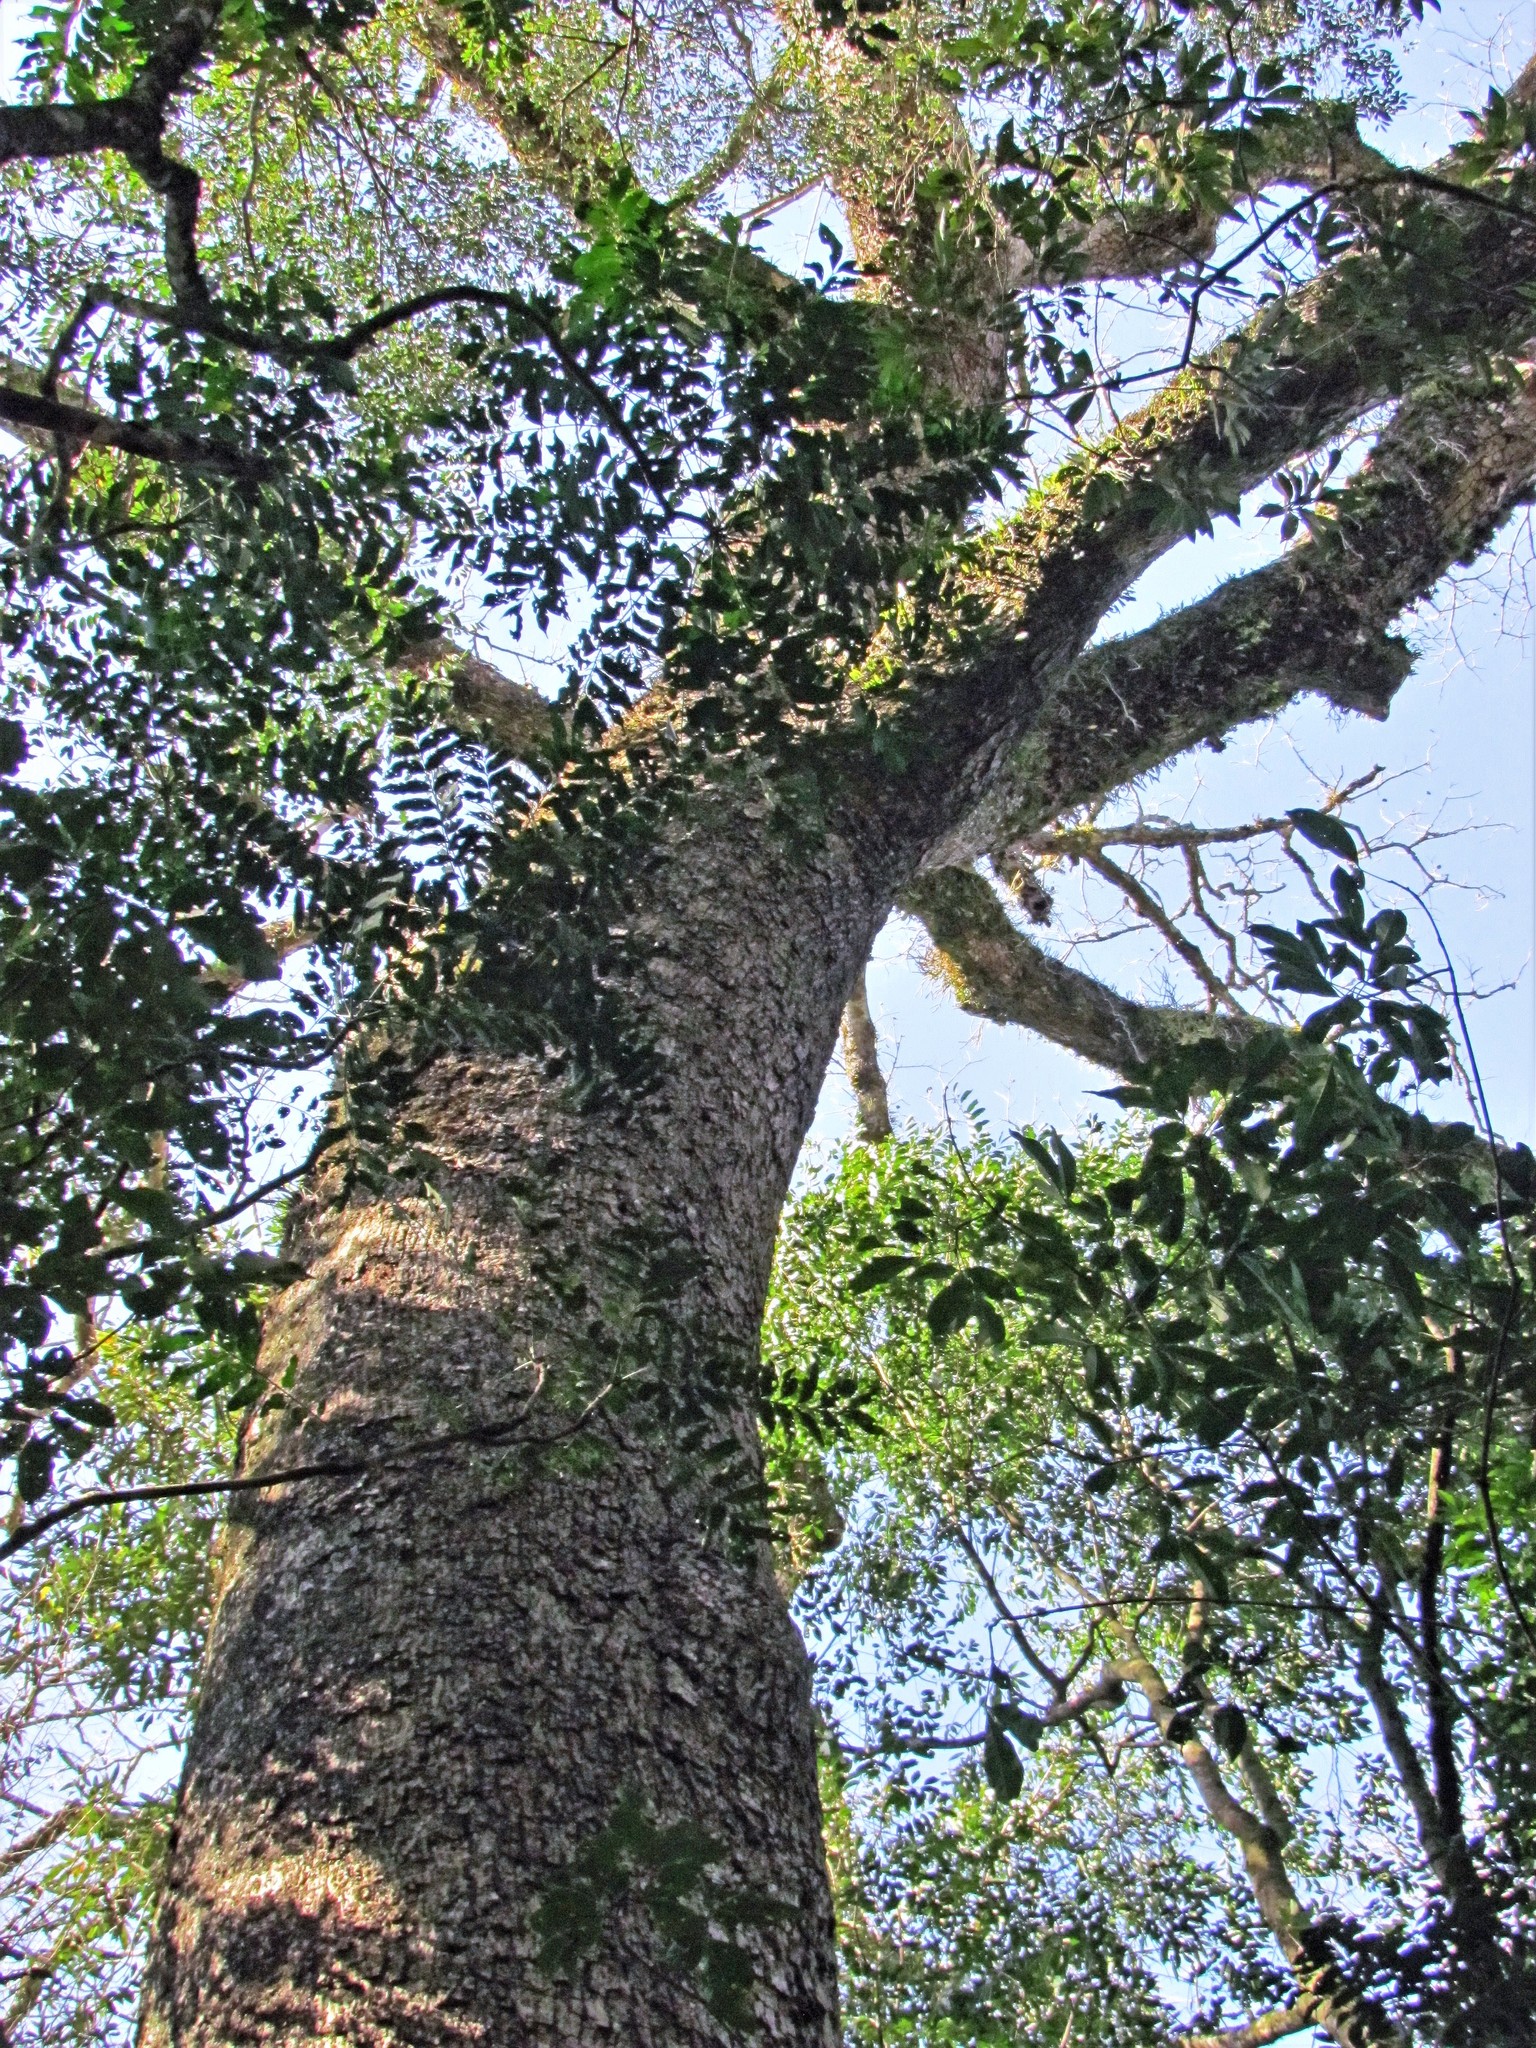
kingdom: Plantae
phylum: Tracheophyta
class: Magnoliopsida
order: Fabales
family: Fabaceae
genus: Enterolobium
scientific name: Enterolobium contortisiliquum
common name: Pacara earpod tree
